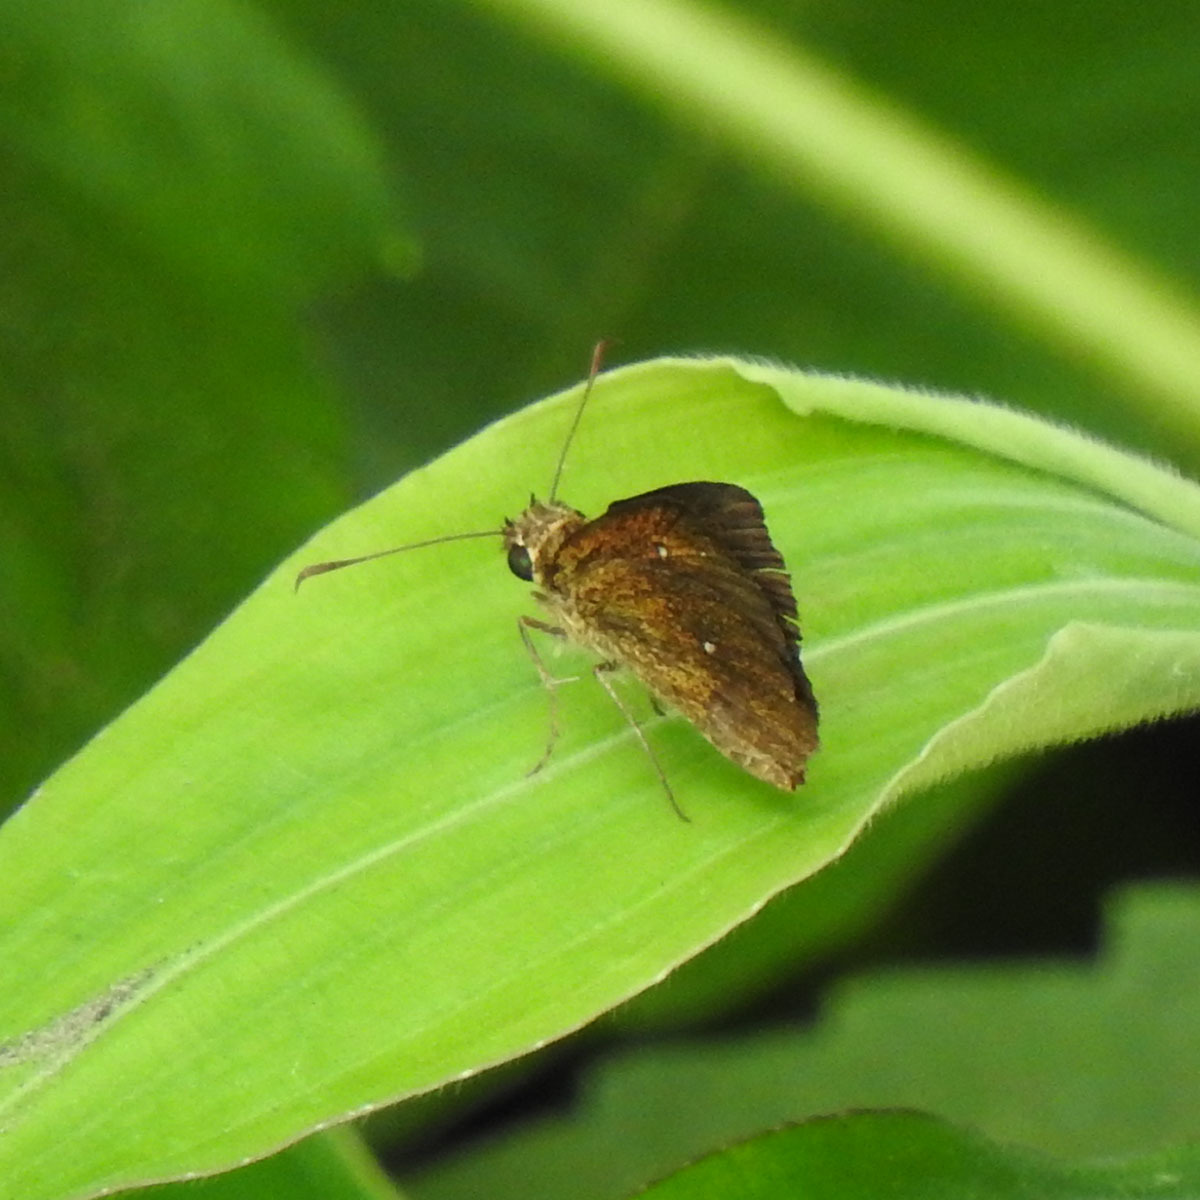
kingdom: Animalia
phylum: Arthropoda
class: Insecta
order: Lepidoptera
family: Hesperiidae
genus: Iambrix
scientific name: Iambrix salsala
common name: Chestnut bob
